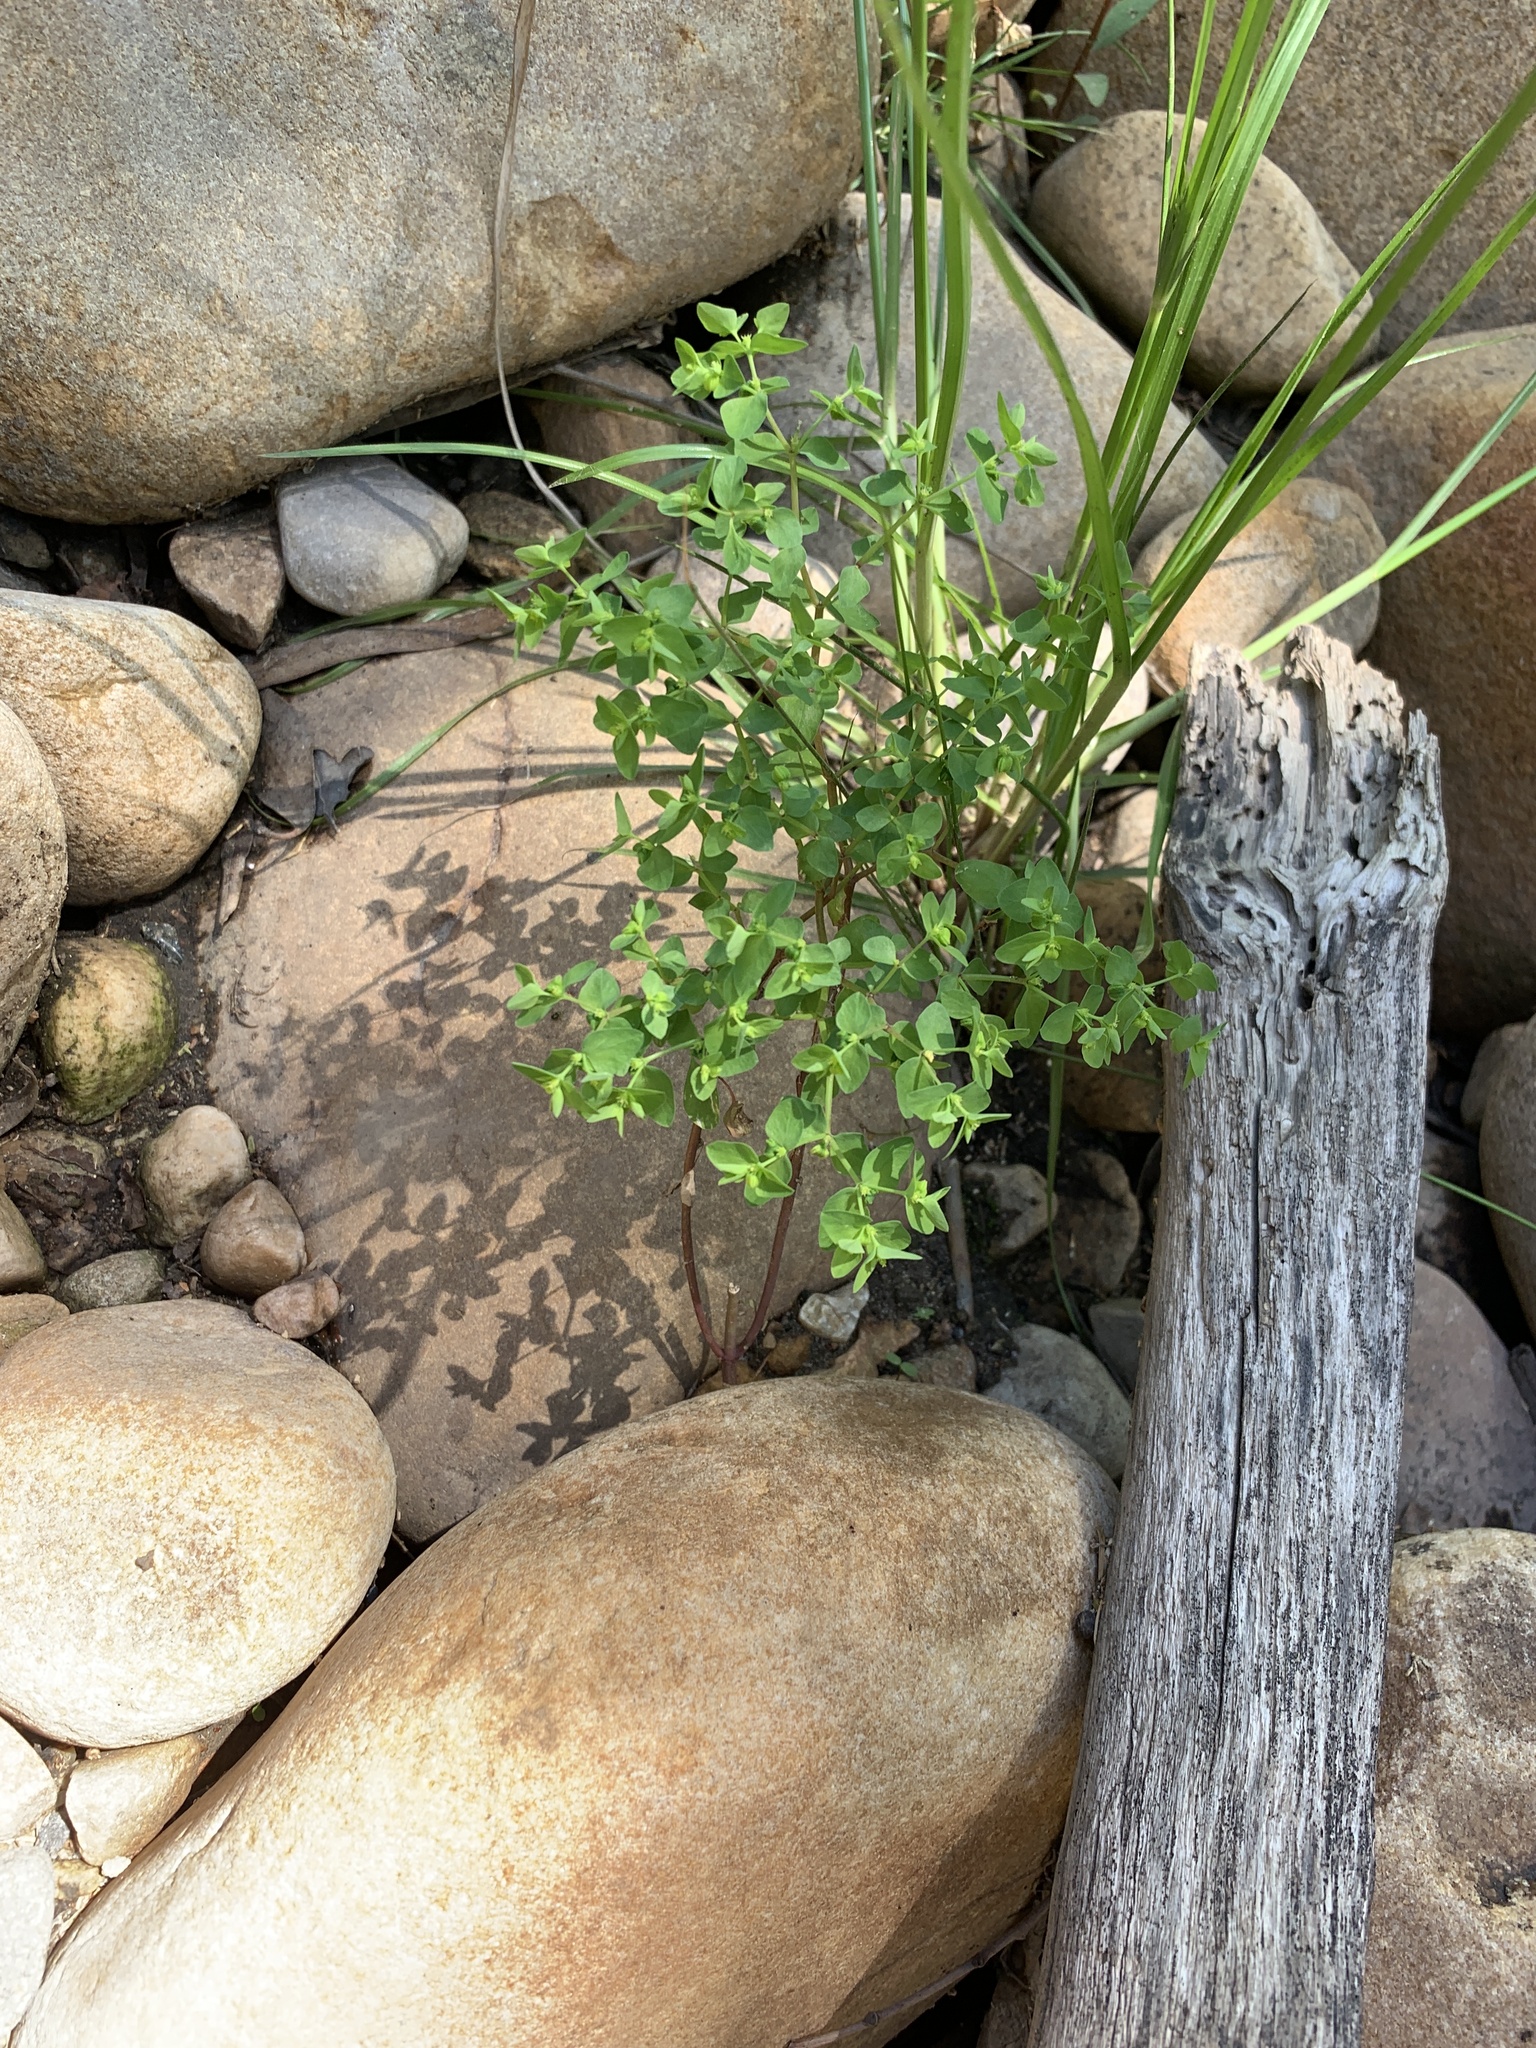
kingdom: Plantae
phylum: Tracheophyta
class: Magnoliopsida
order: Malpighiales
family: Euphorbiaceae
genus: Euphorbia
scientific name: Euphorbia peplus
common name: Petty spurge
